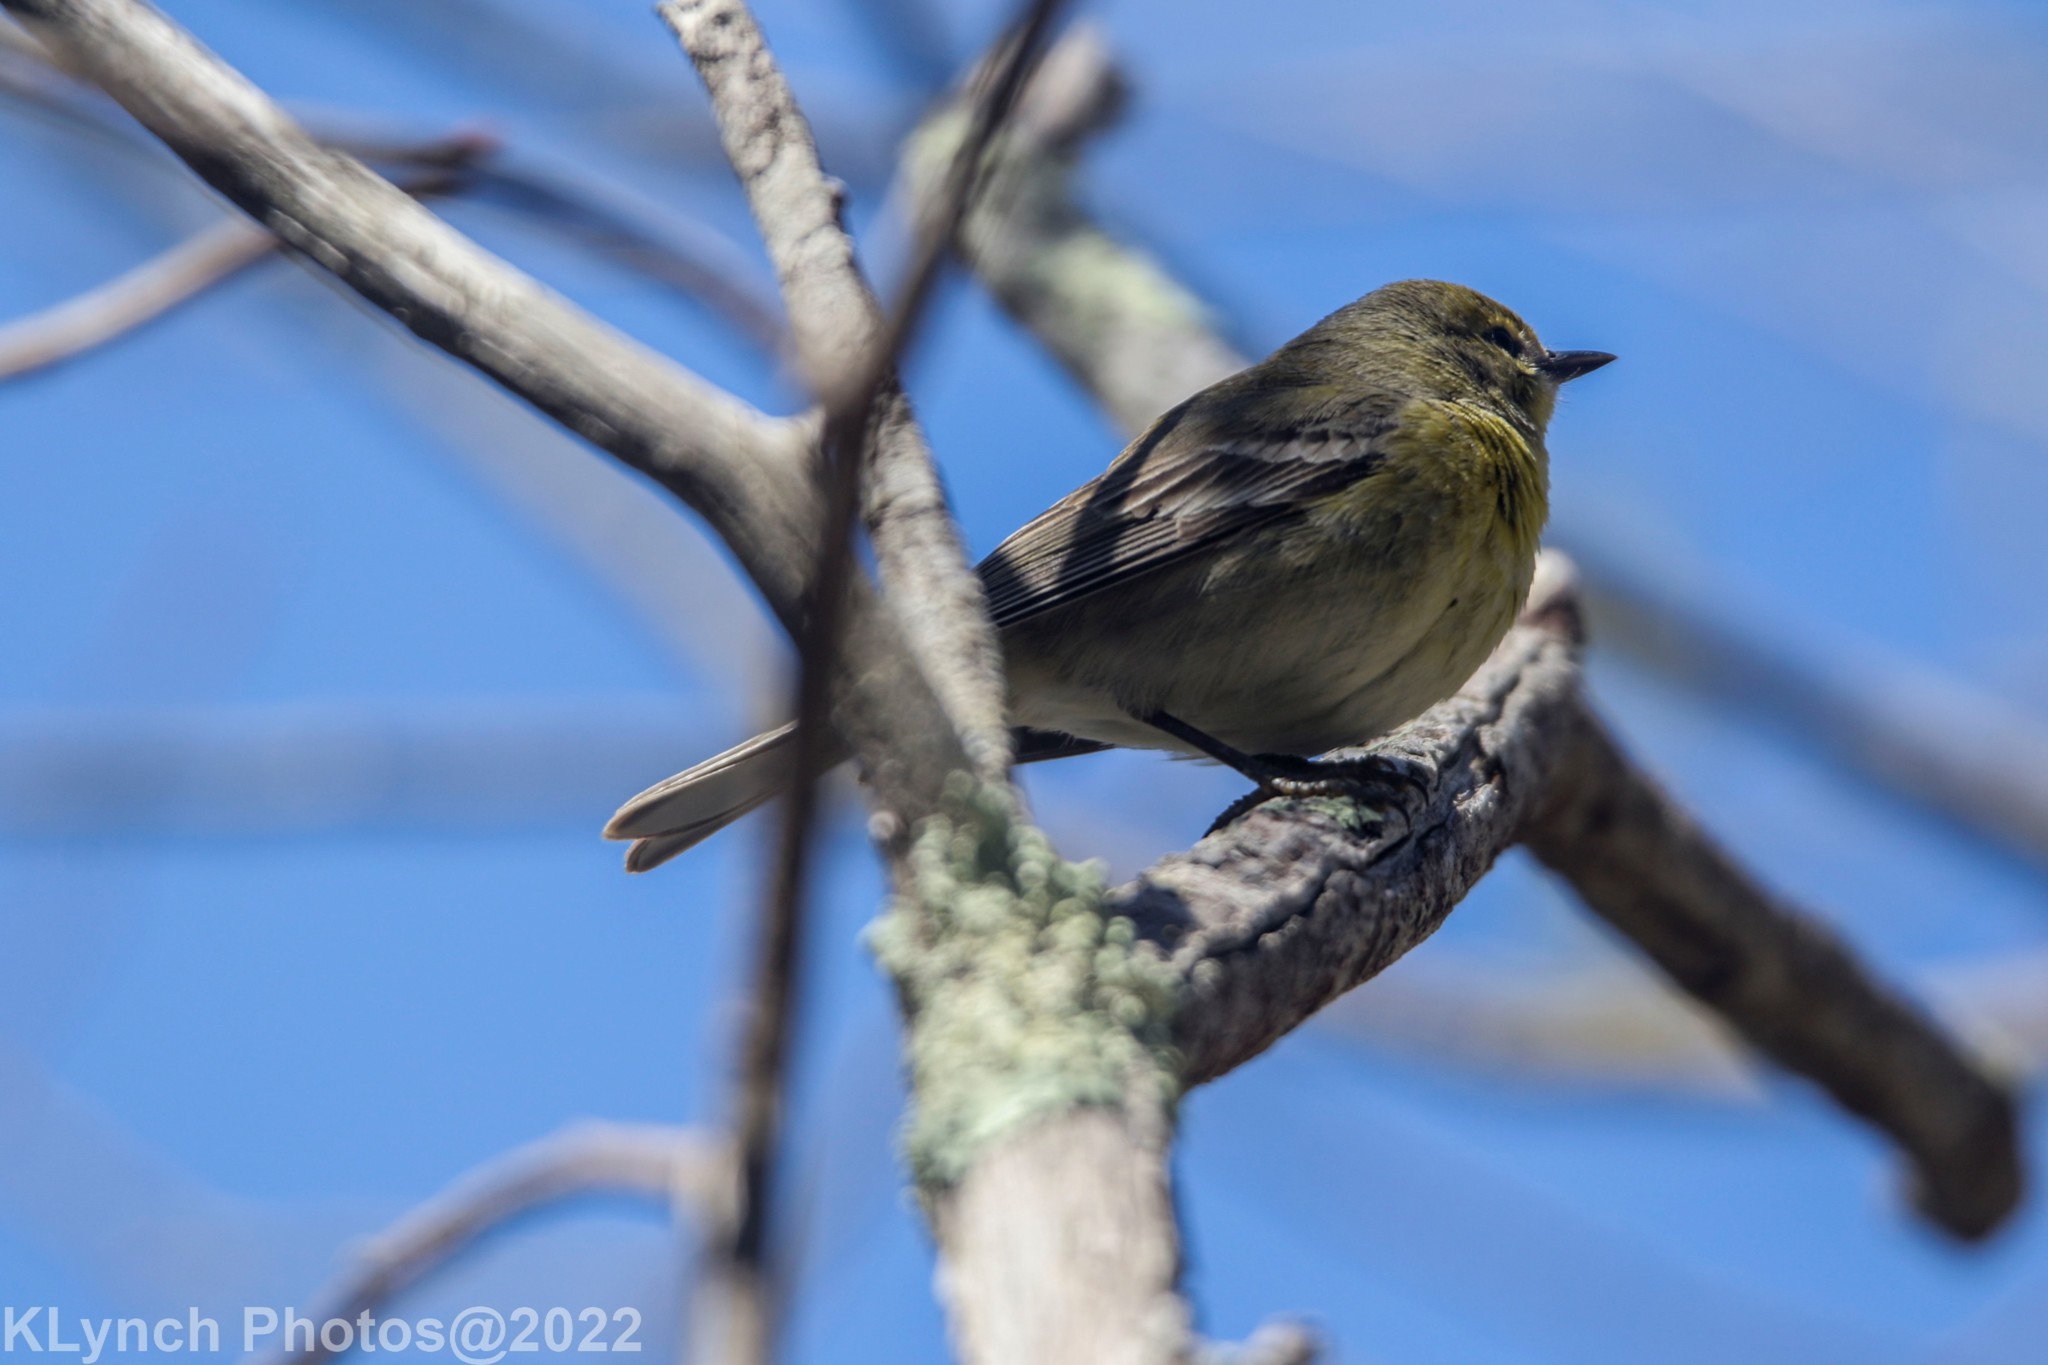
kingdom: Animalia
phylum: Chordata
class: Aves
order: Passeriformes
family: Parulidae
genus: Setophaga
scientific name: Setophaga pinus
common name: Pine warbler
